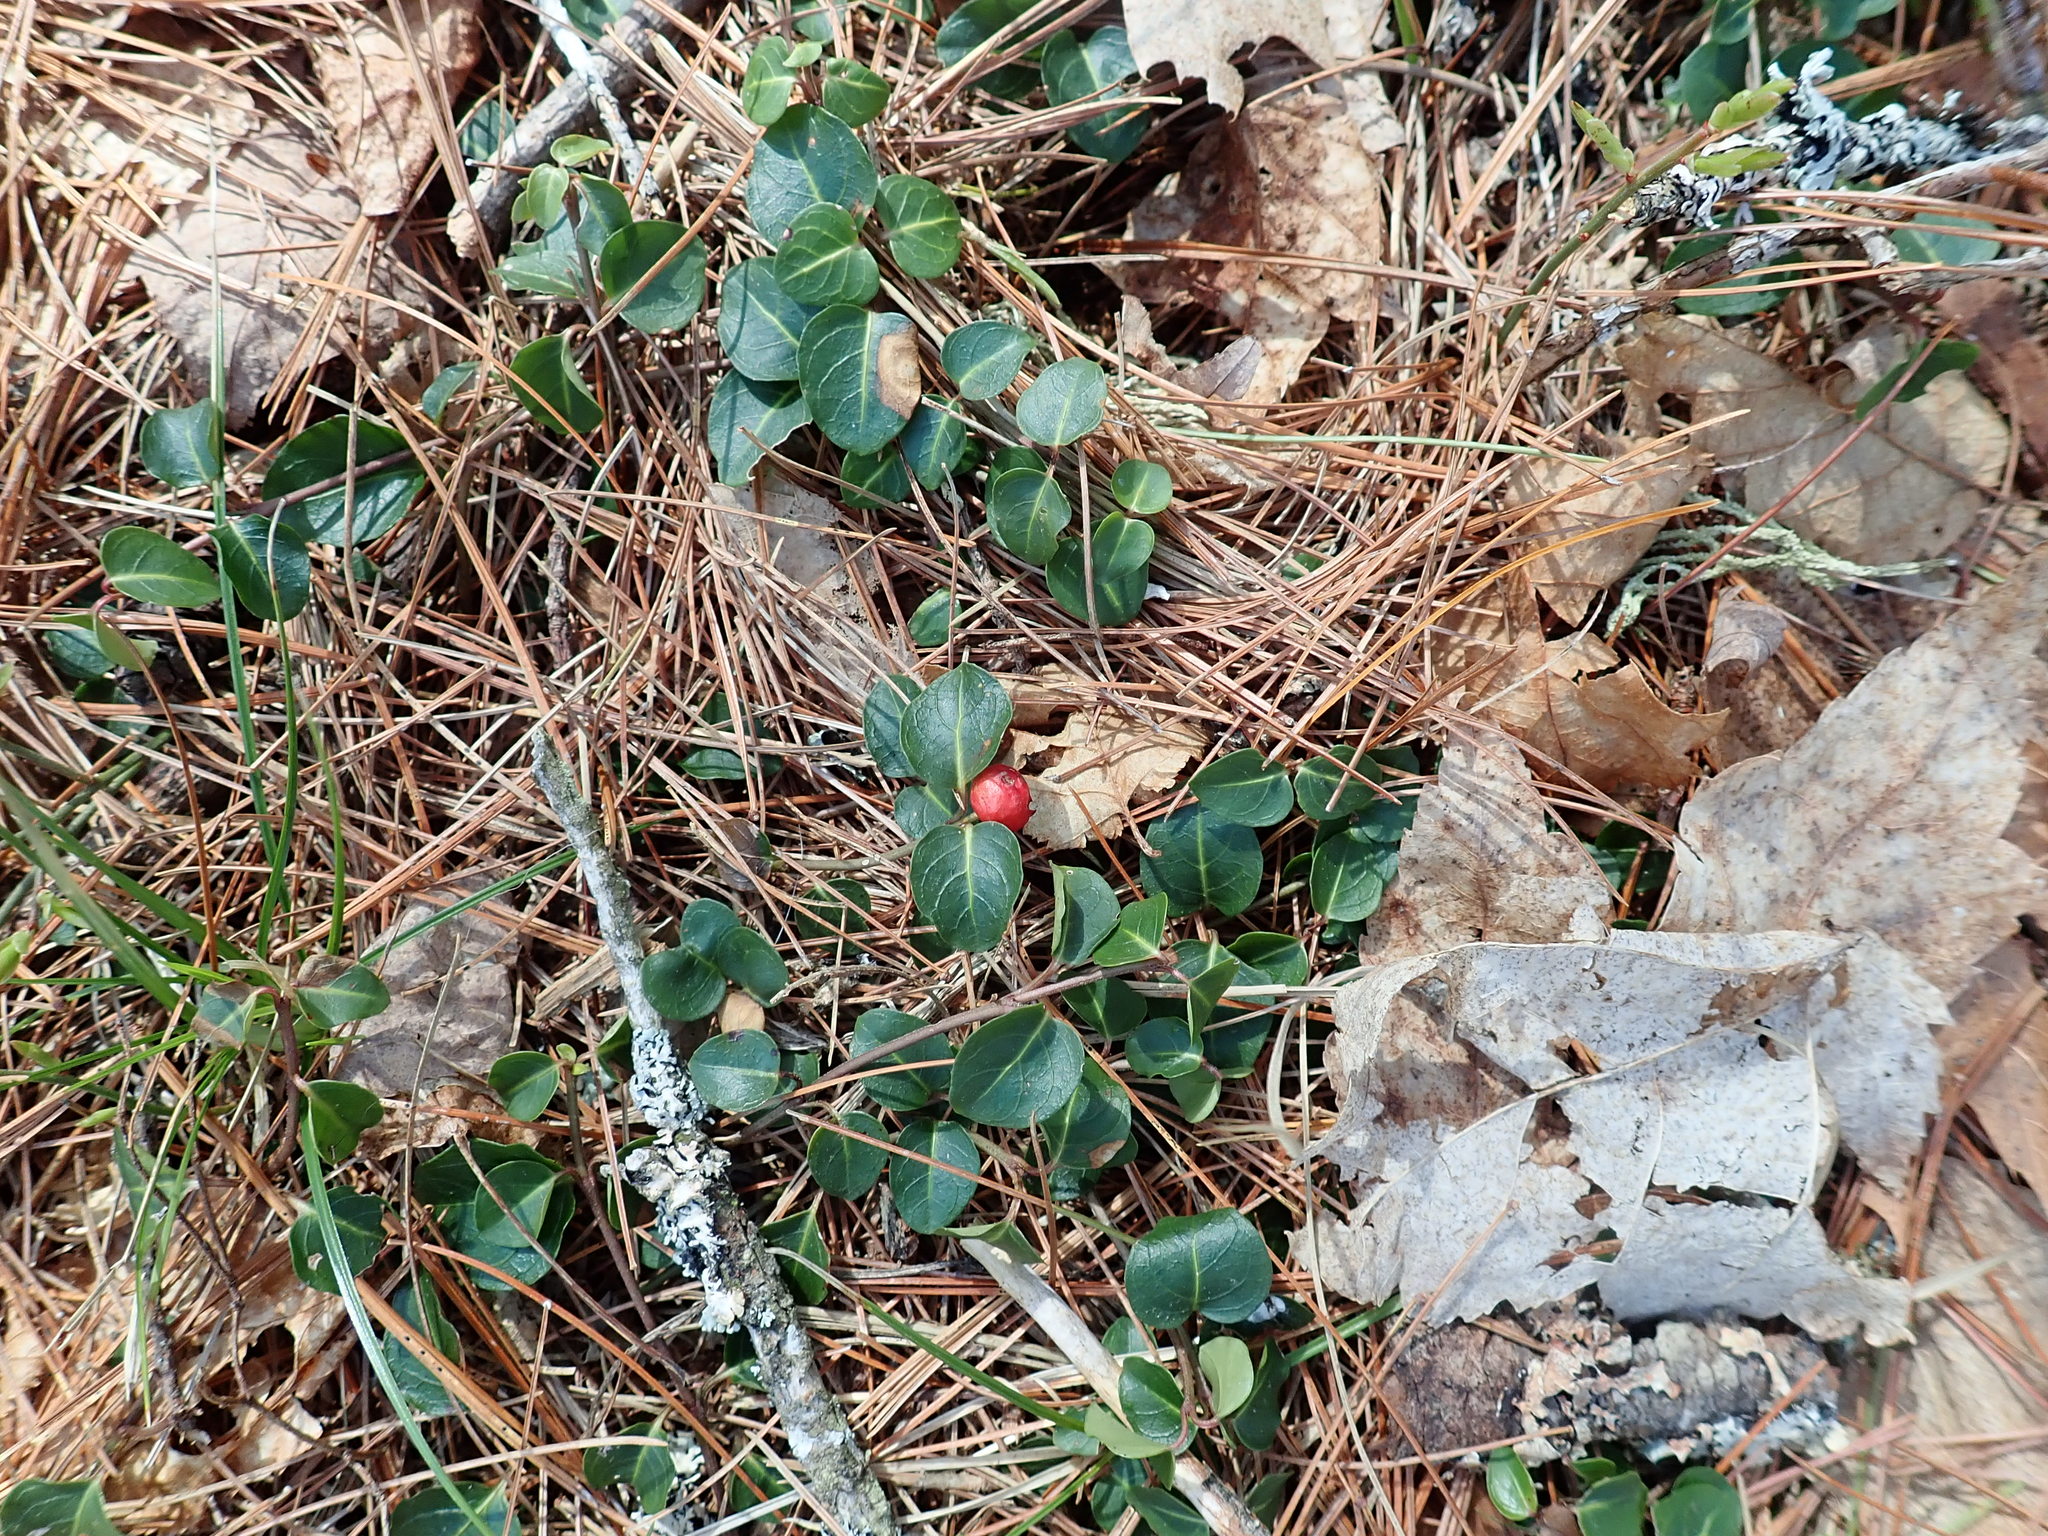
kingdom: Plantae
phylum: Tracheophyta
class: Magnoliopsida
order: Gentianales
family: Rubiaceae
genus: Mitchella
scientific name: Mitchella repens
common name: Partridge-berry
